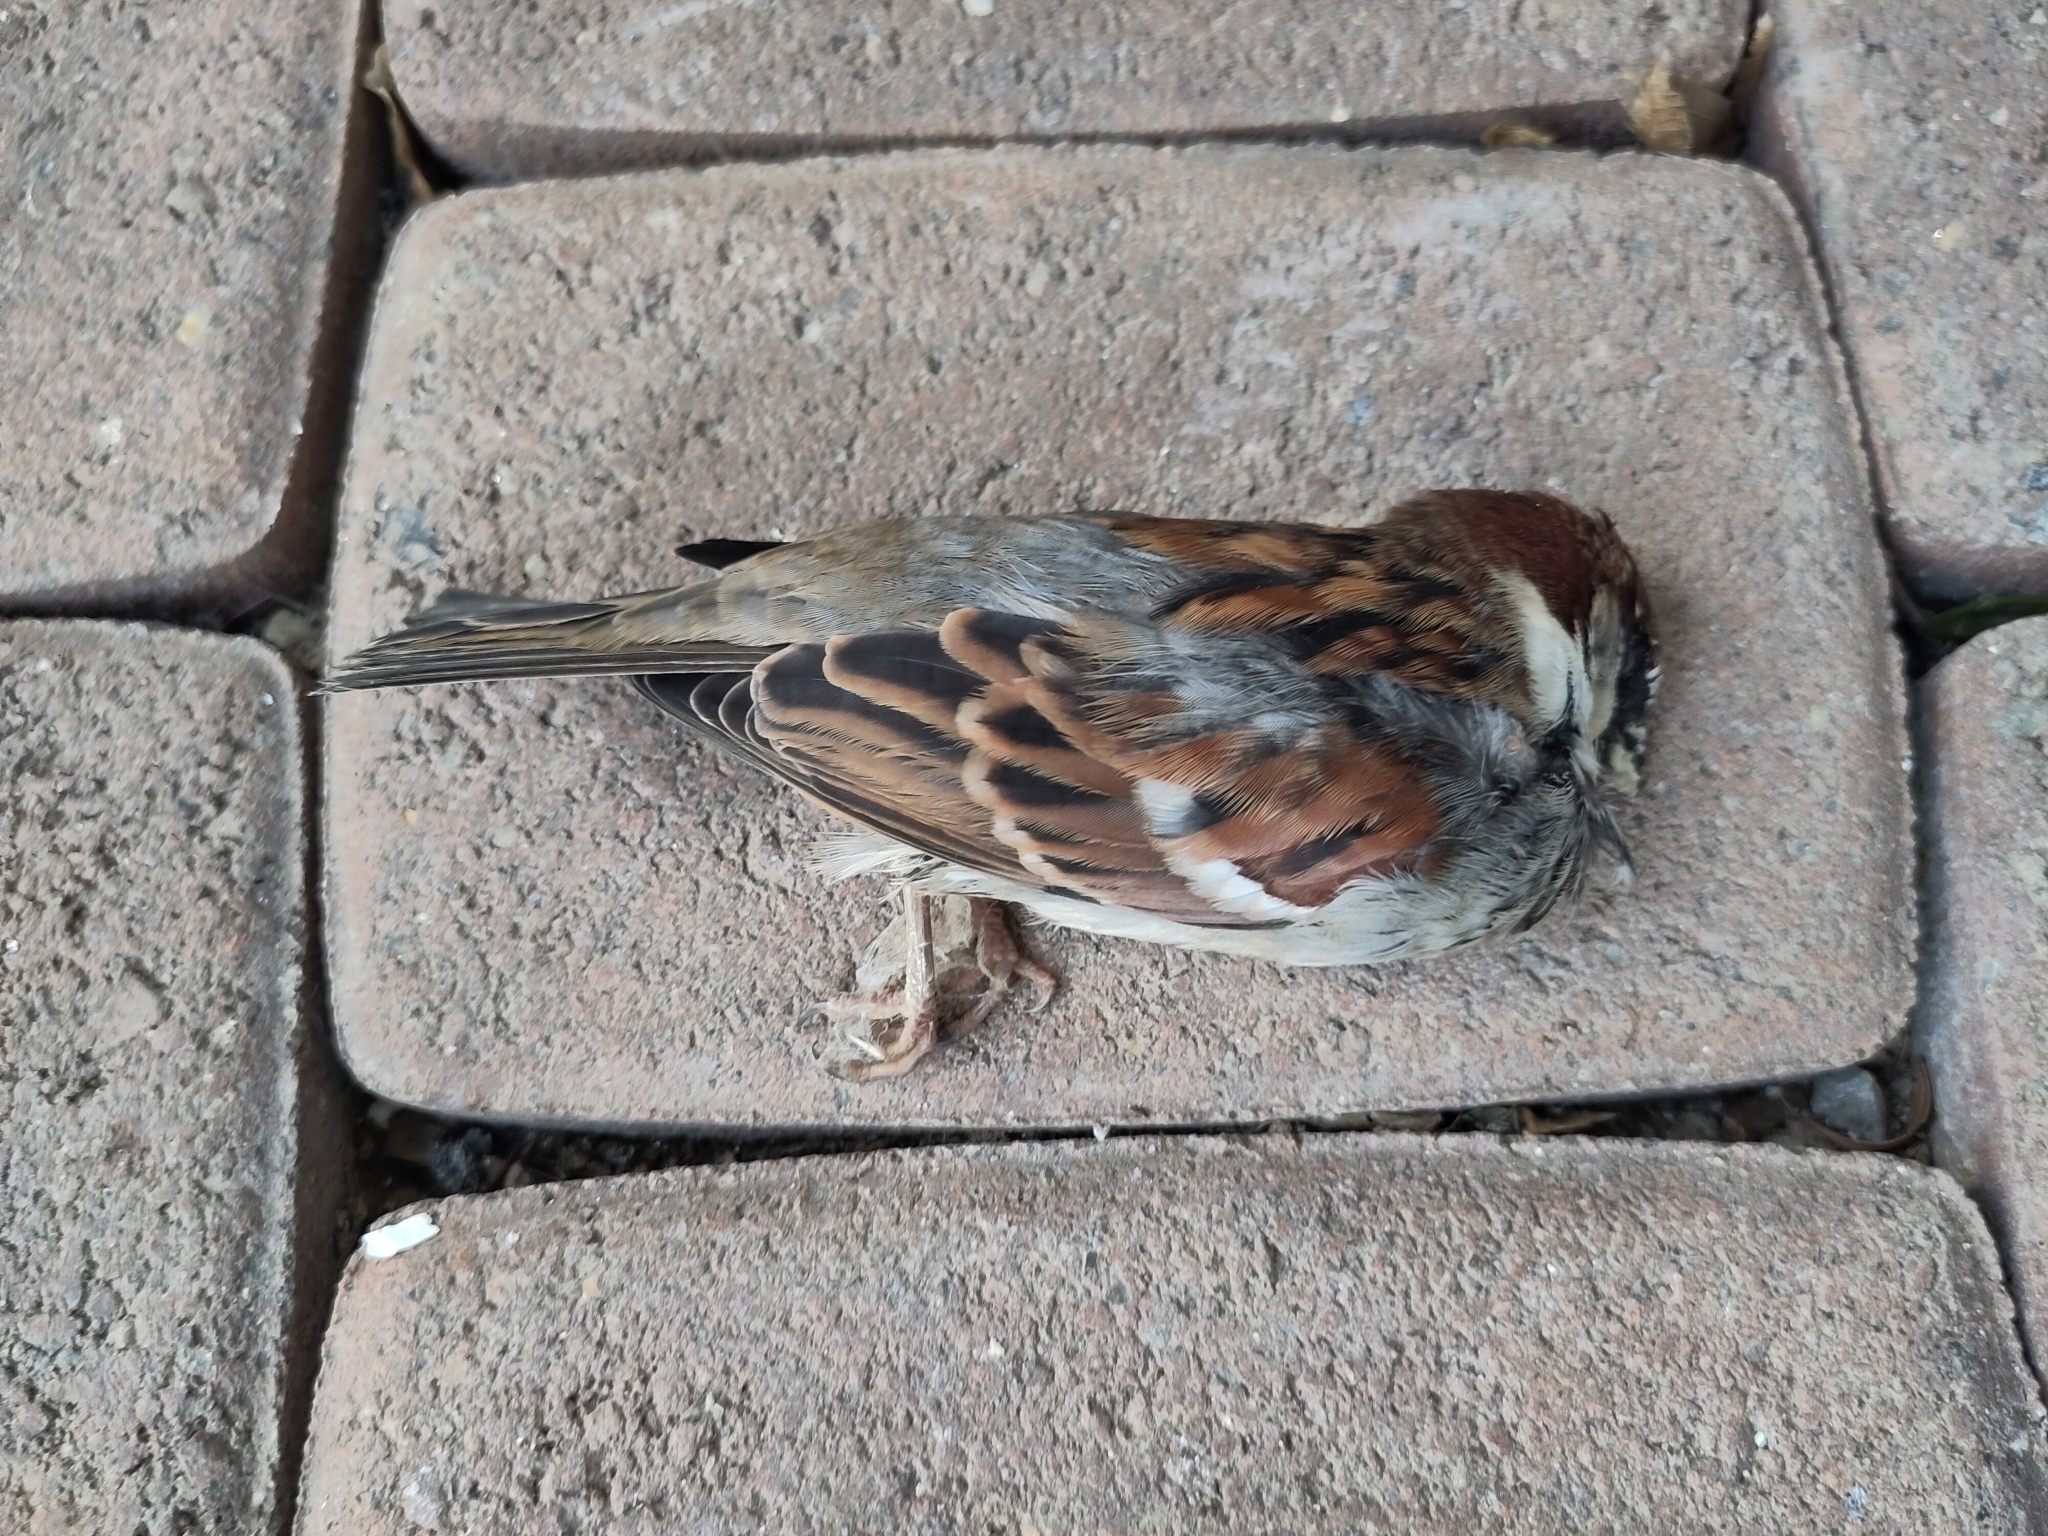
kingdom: Animalia
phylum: Chordata
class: Aves
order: Passeriformes
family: Passeridae
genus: Passer
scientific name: Passer domesticus
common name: House sparrow
